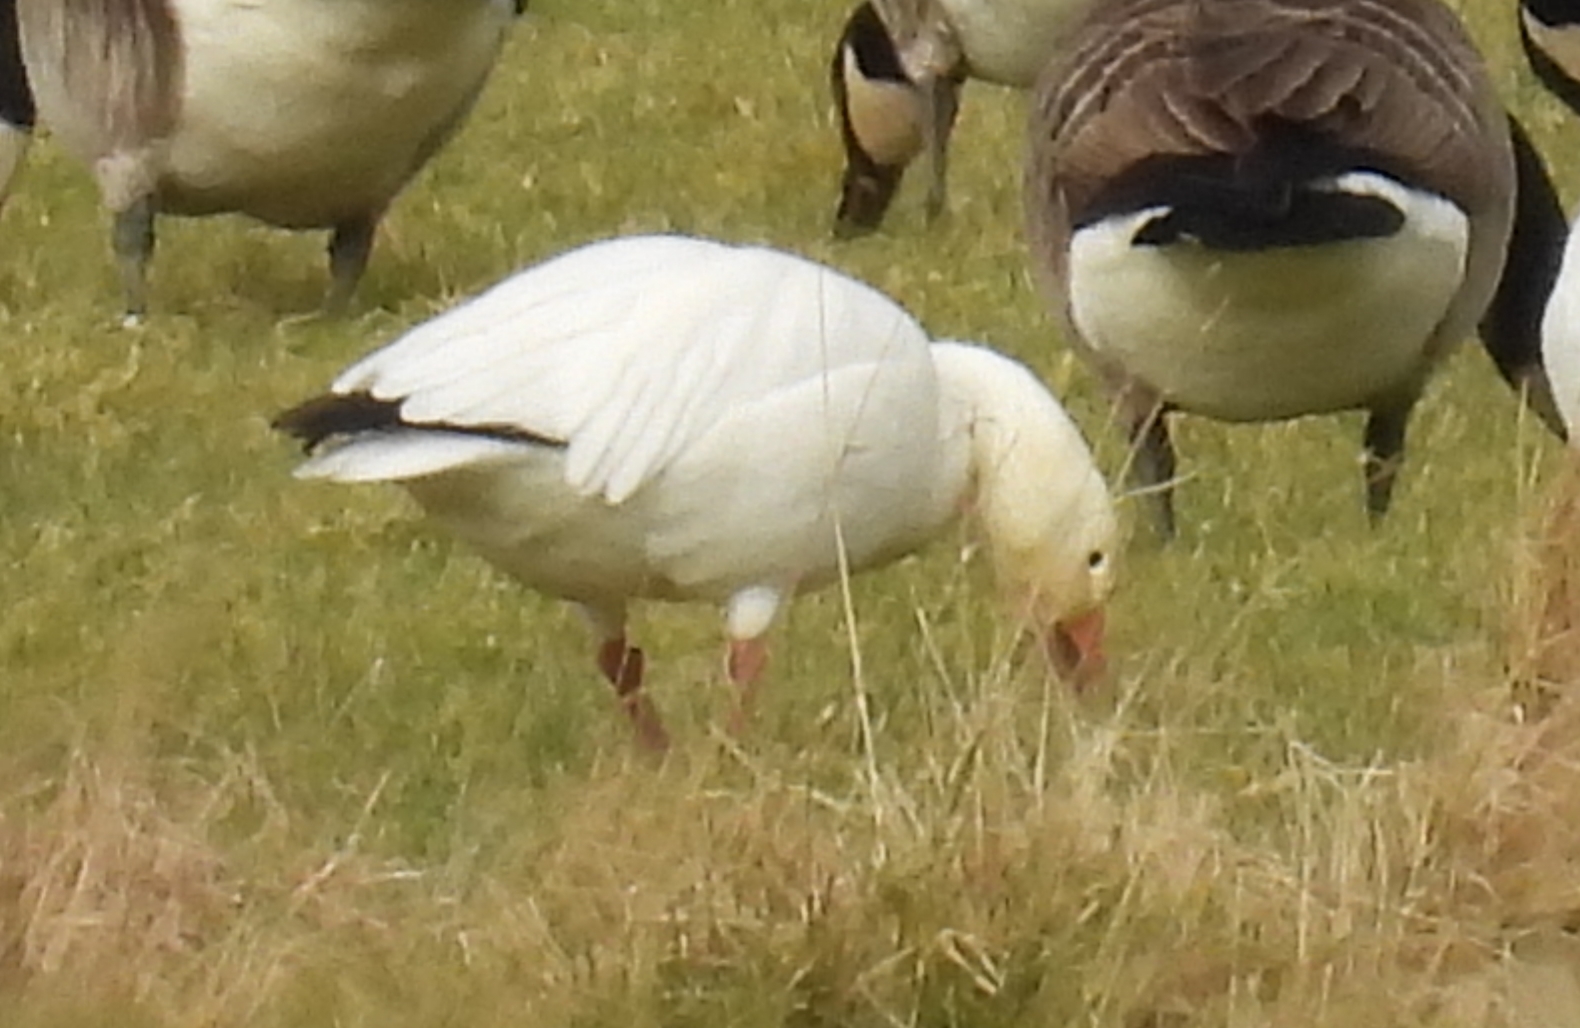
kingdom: Animalia
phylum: Chordata
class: Aves
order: Anseriformes
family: Anatidae
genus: Anser
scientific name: Anser caerulescens
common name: Snow goose
